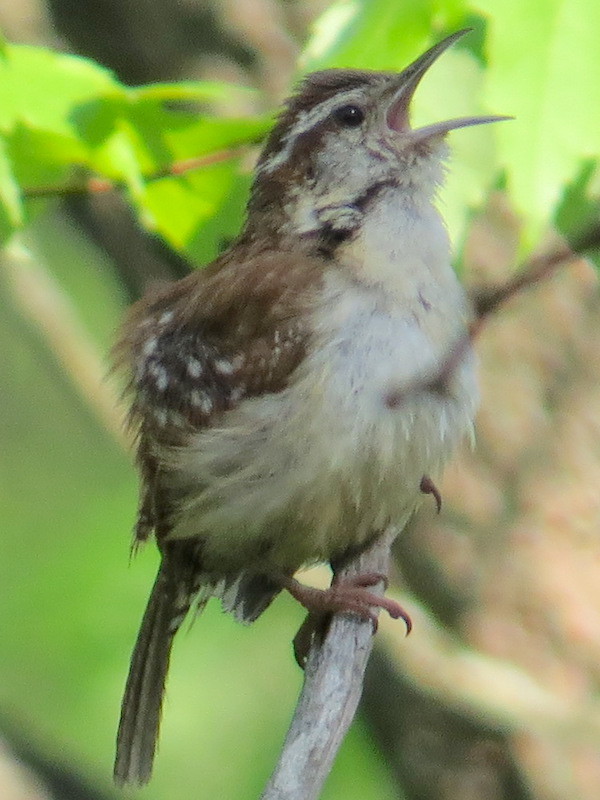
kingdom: Animalia
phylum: Chordata
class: Aves
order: Passeriformes
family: Troglodytidae
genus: Thryothorus
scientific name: Thryothorus ludovicianus
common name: Carolina wren
